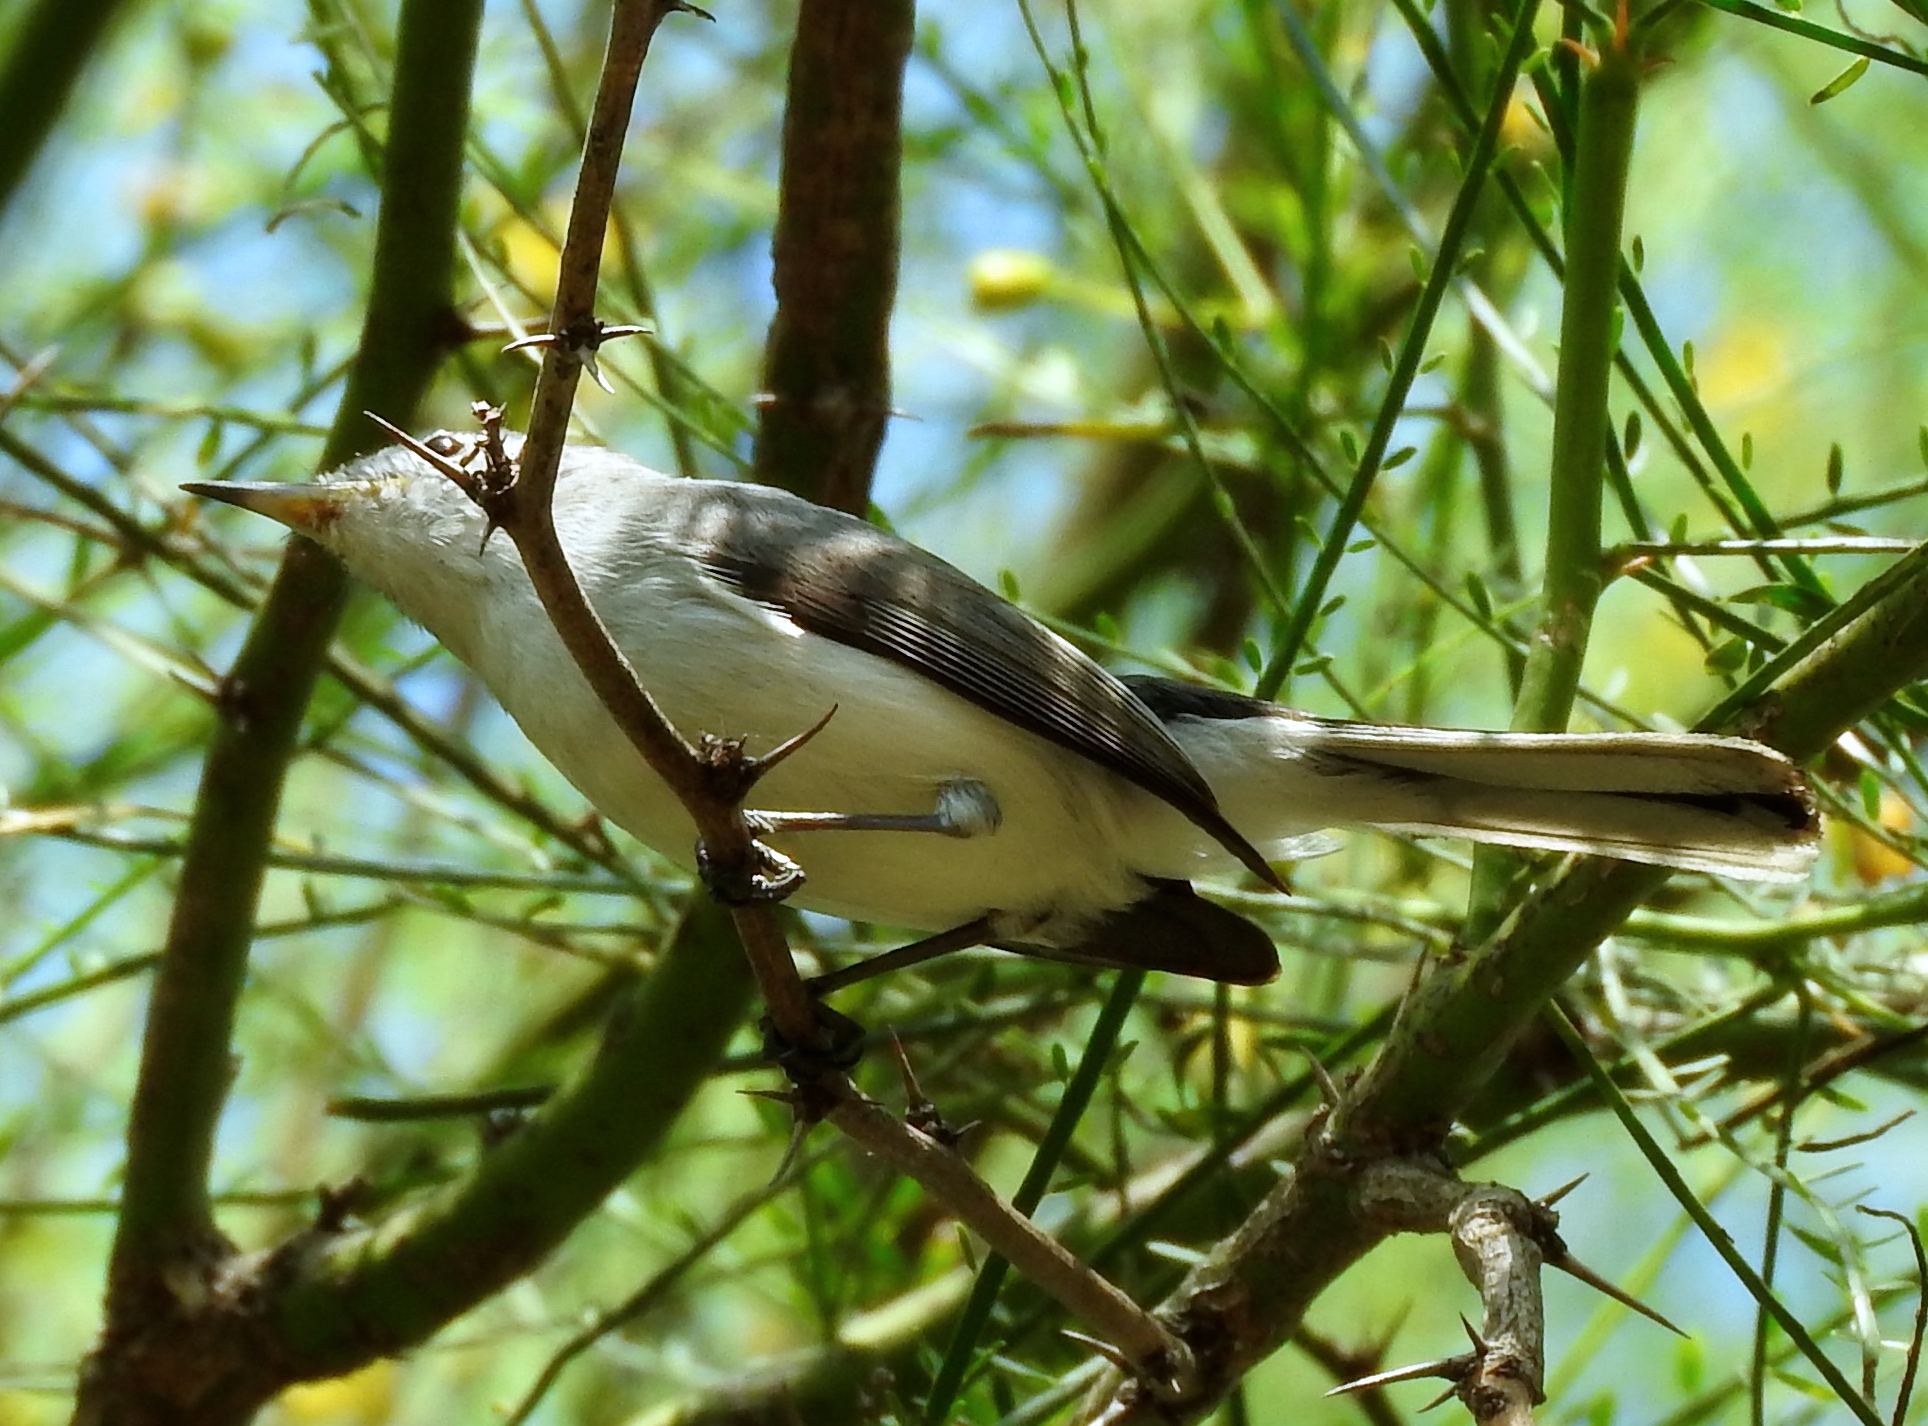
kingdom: Animalia
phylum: Chordata
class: Aves
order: Passeriformes
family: Polioptilidae
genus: Polioptila
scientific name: Polioptila caerulea
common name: Blue-gray gnatcatcher
